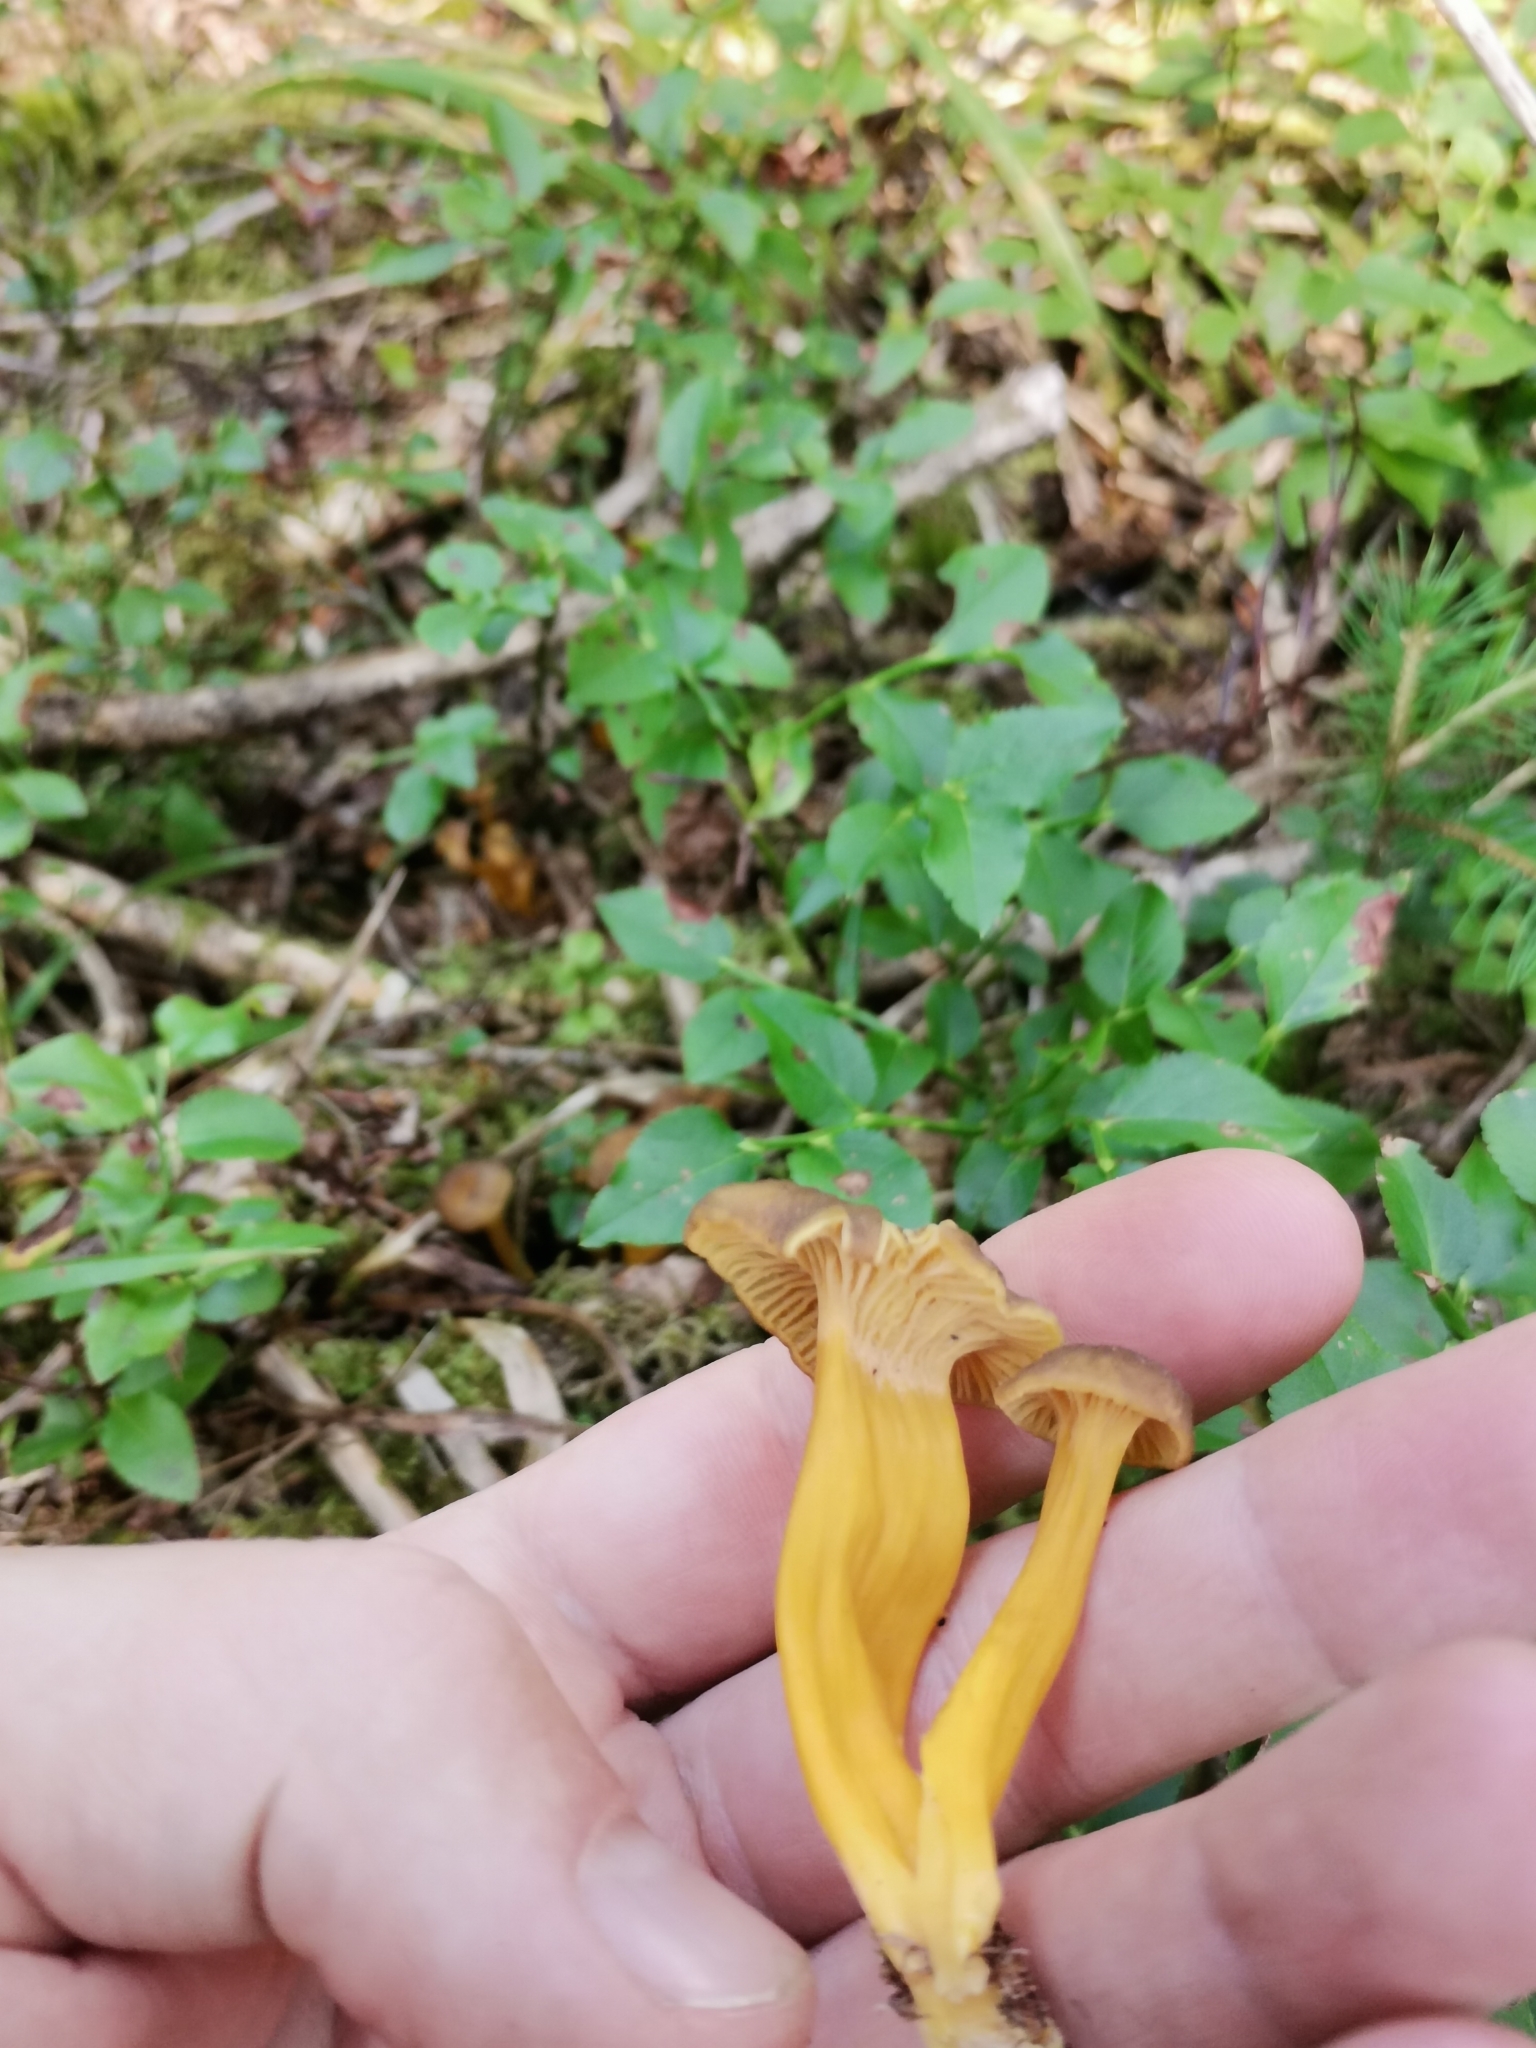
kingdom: Fungi
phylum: Basidiomycota
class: Agaricomycetes
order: Cantharellales
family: Hydnaceae
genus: Craterellus
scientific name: Craterellus tubaeformis
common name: Yellowfoot
